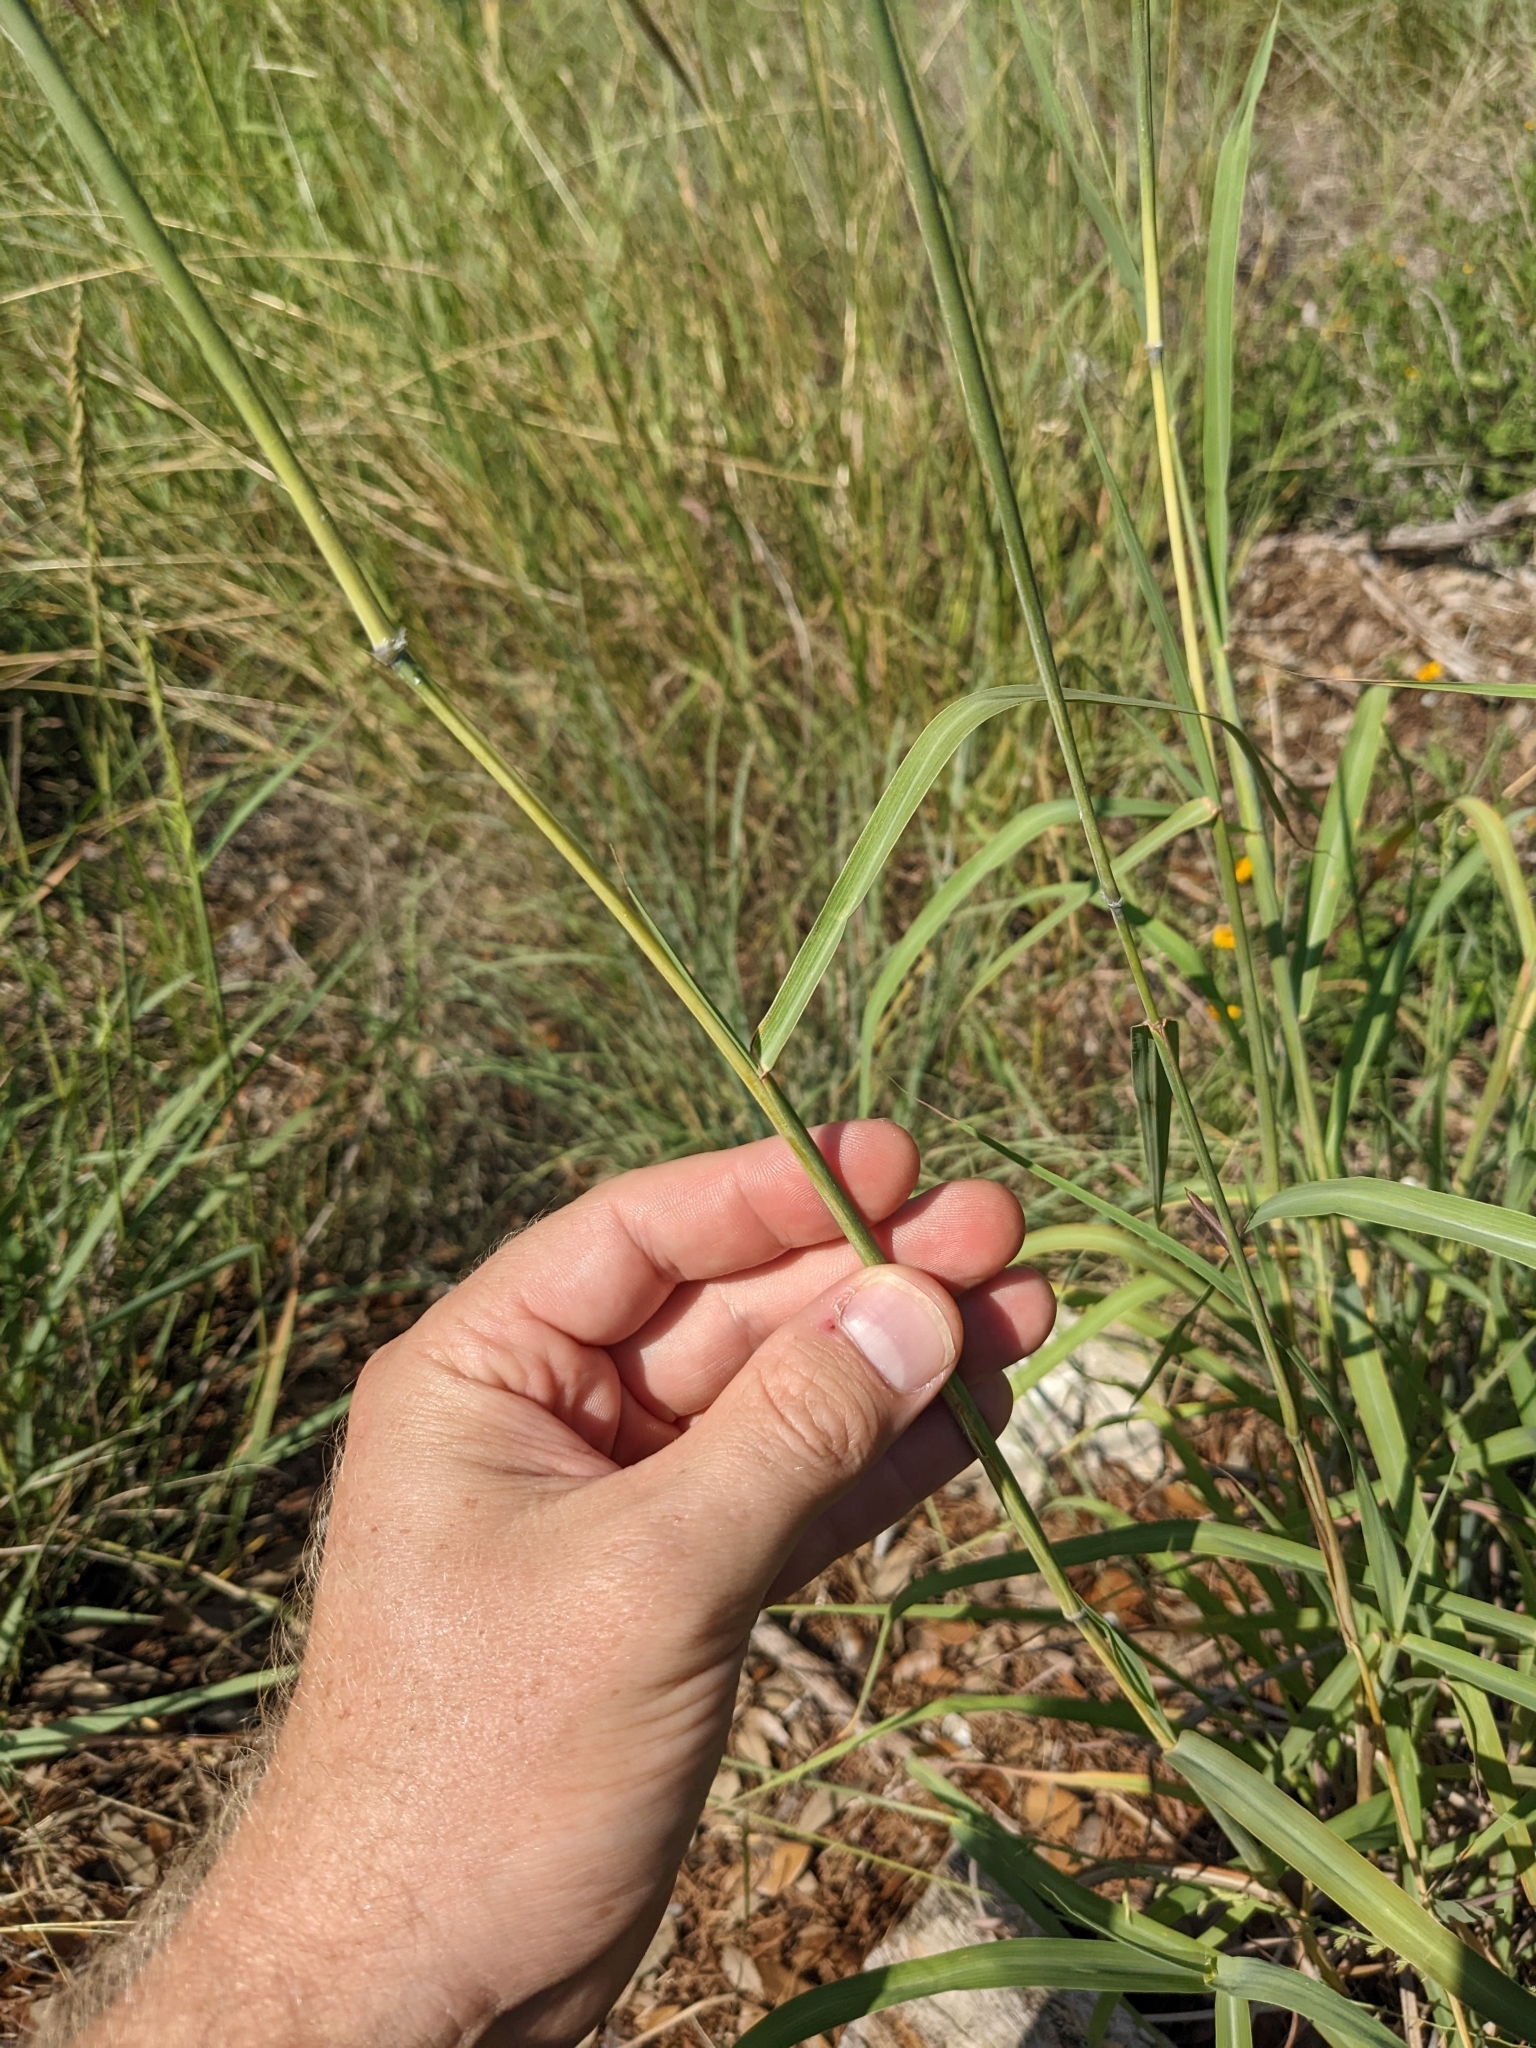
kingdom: Plantae
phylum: Tracheophyta
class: Liliopsida
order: Poales
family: Poaceae
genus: Bothriochloa
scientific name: Bothriochloa hybrida
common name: Hybrid bluestem
